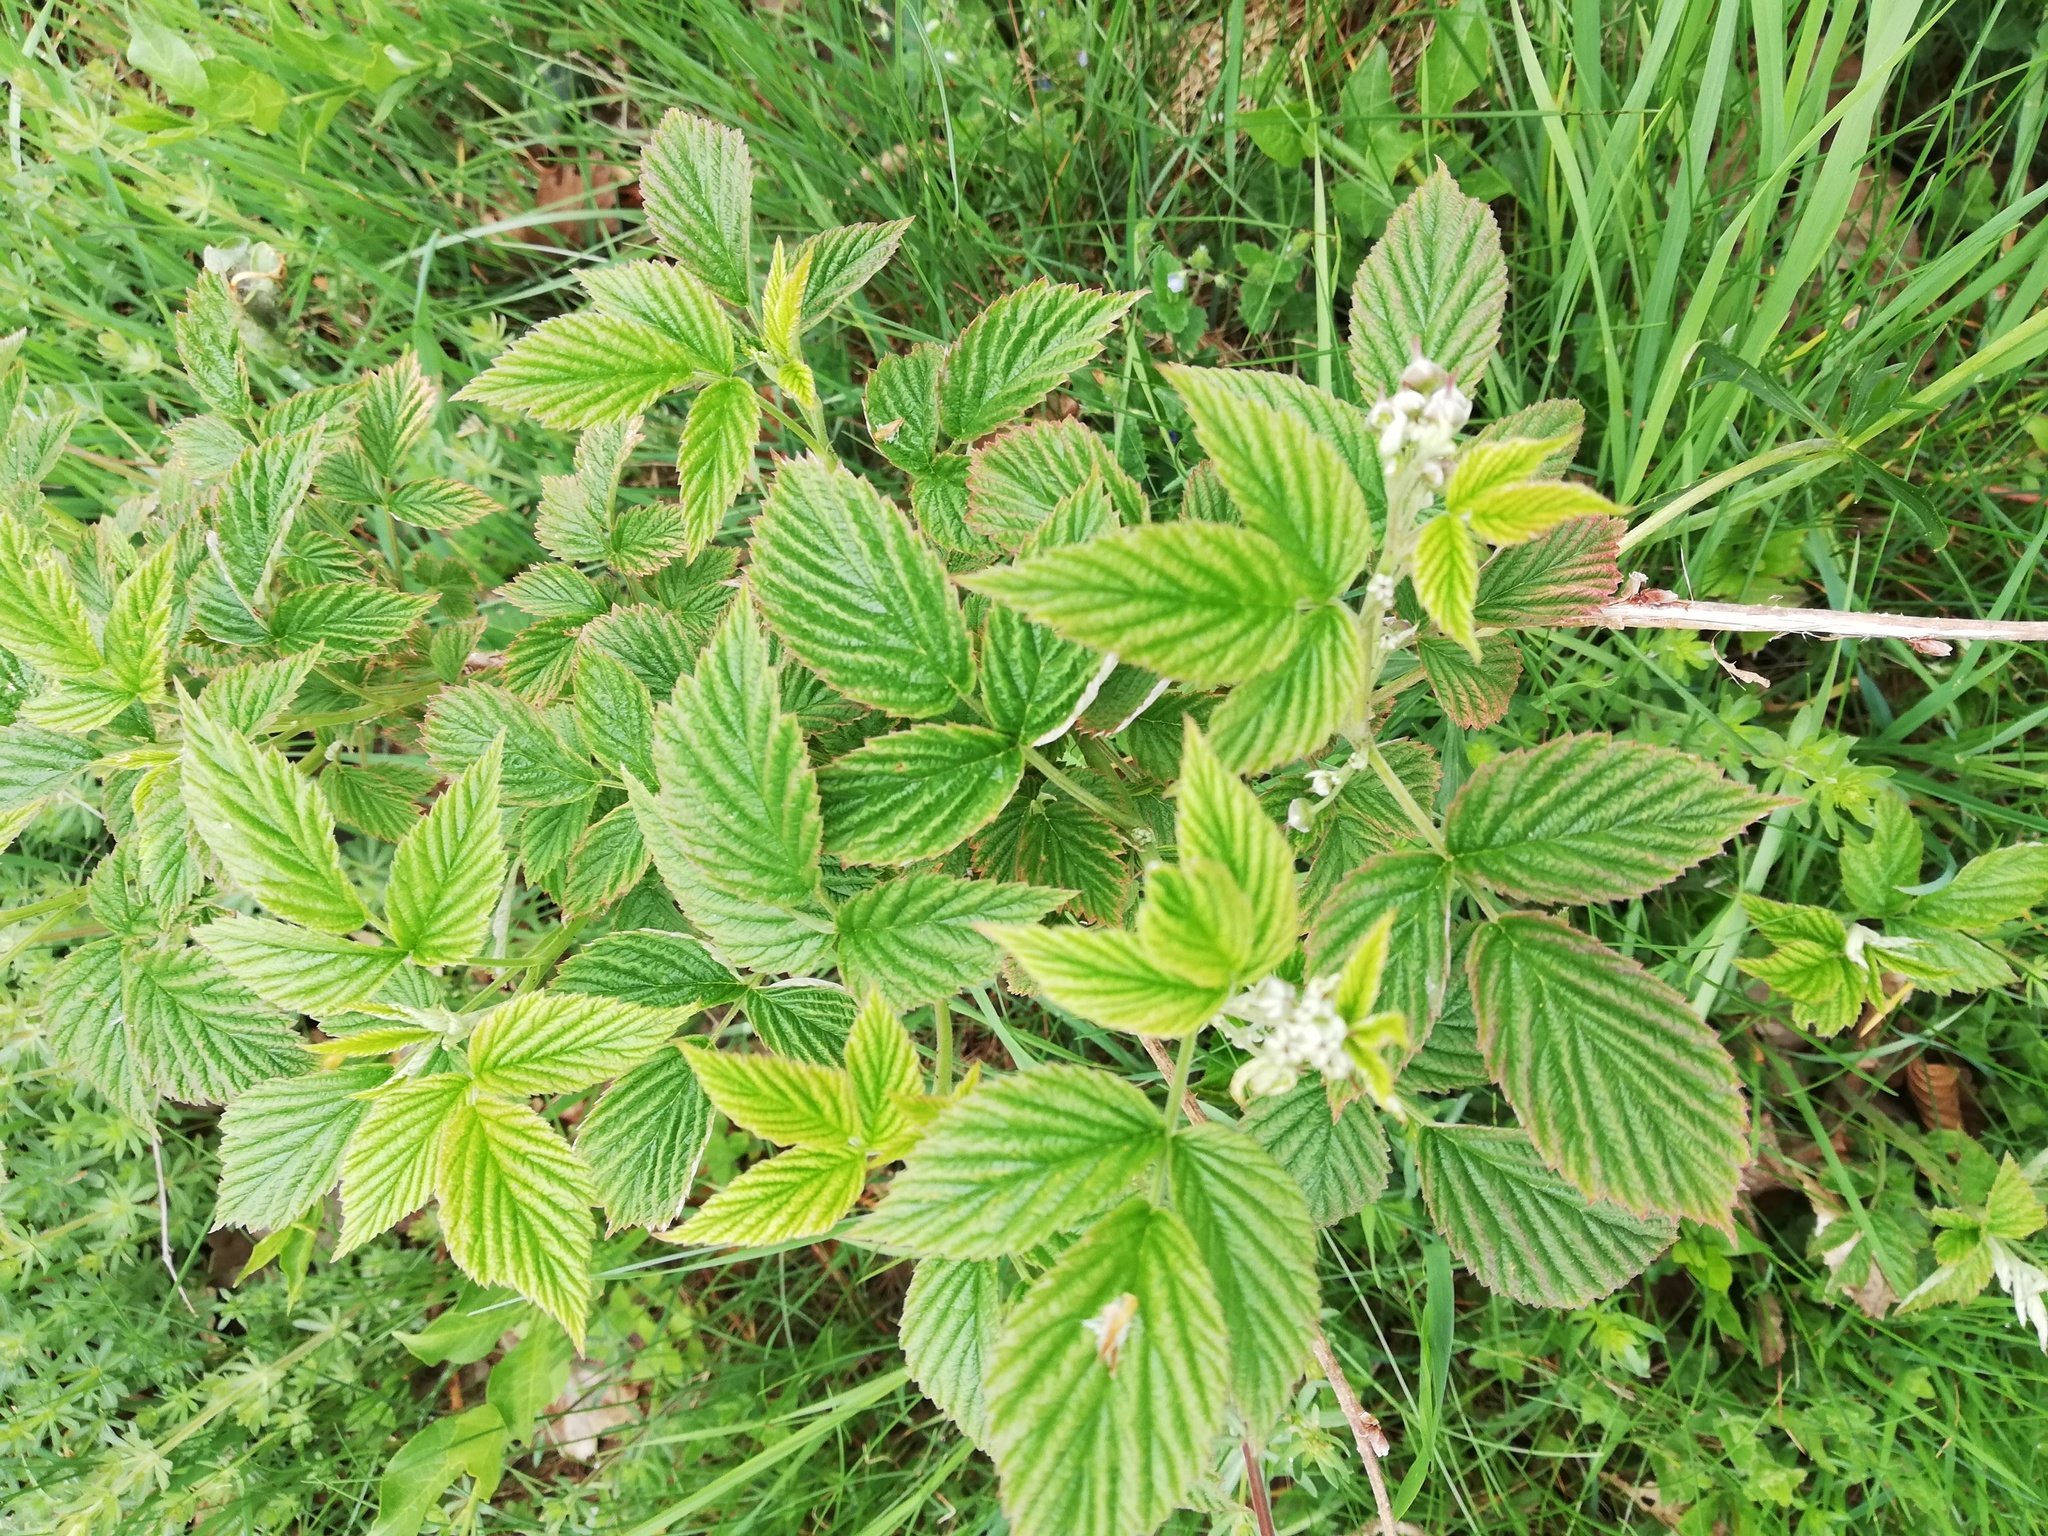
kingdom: Plantae
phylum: Tracheophyta
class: Magnoliopsida
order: Rosales
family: Rosaceae
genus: Rubus
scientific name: Rubus idaeus
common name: Raspberry
